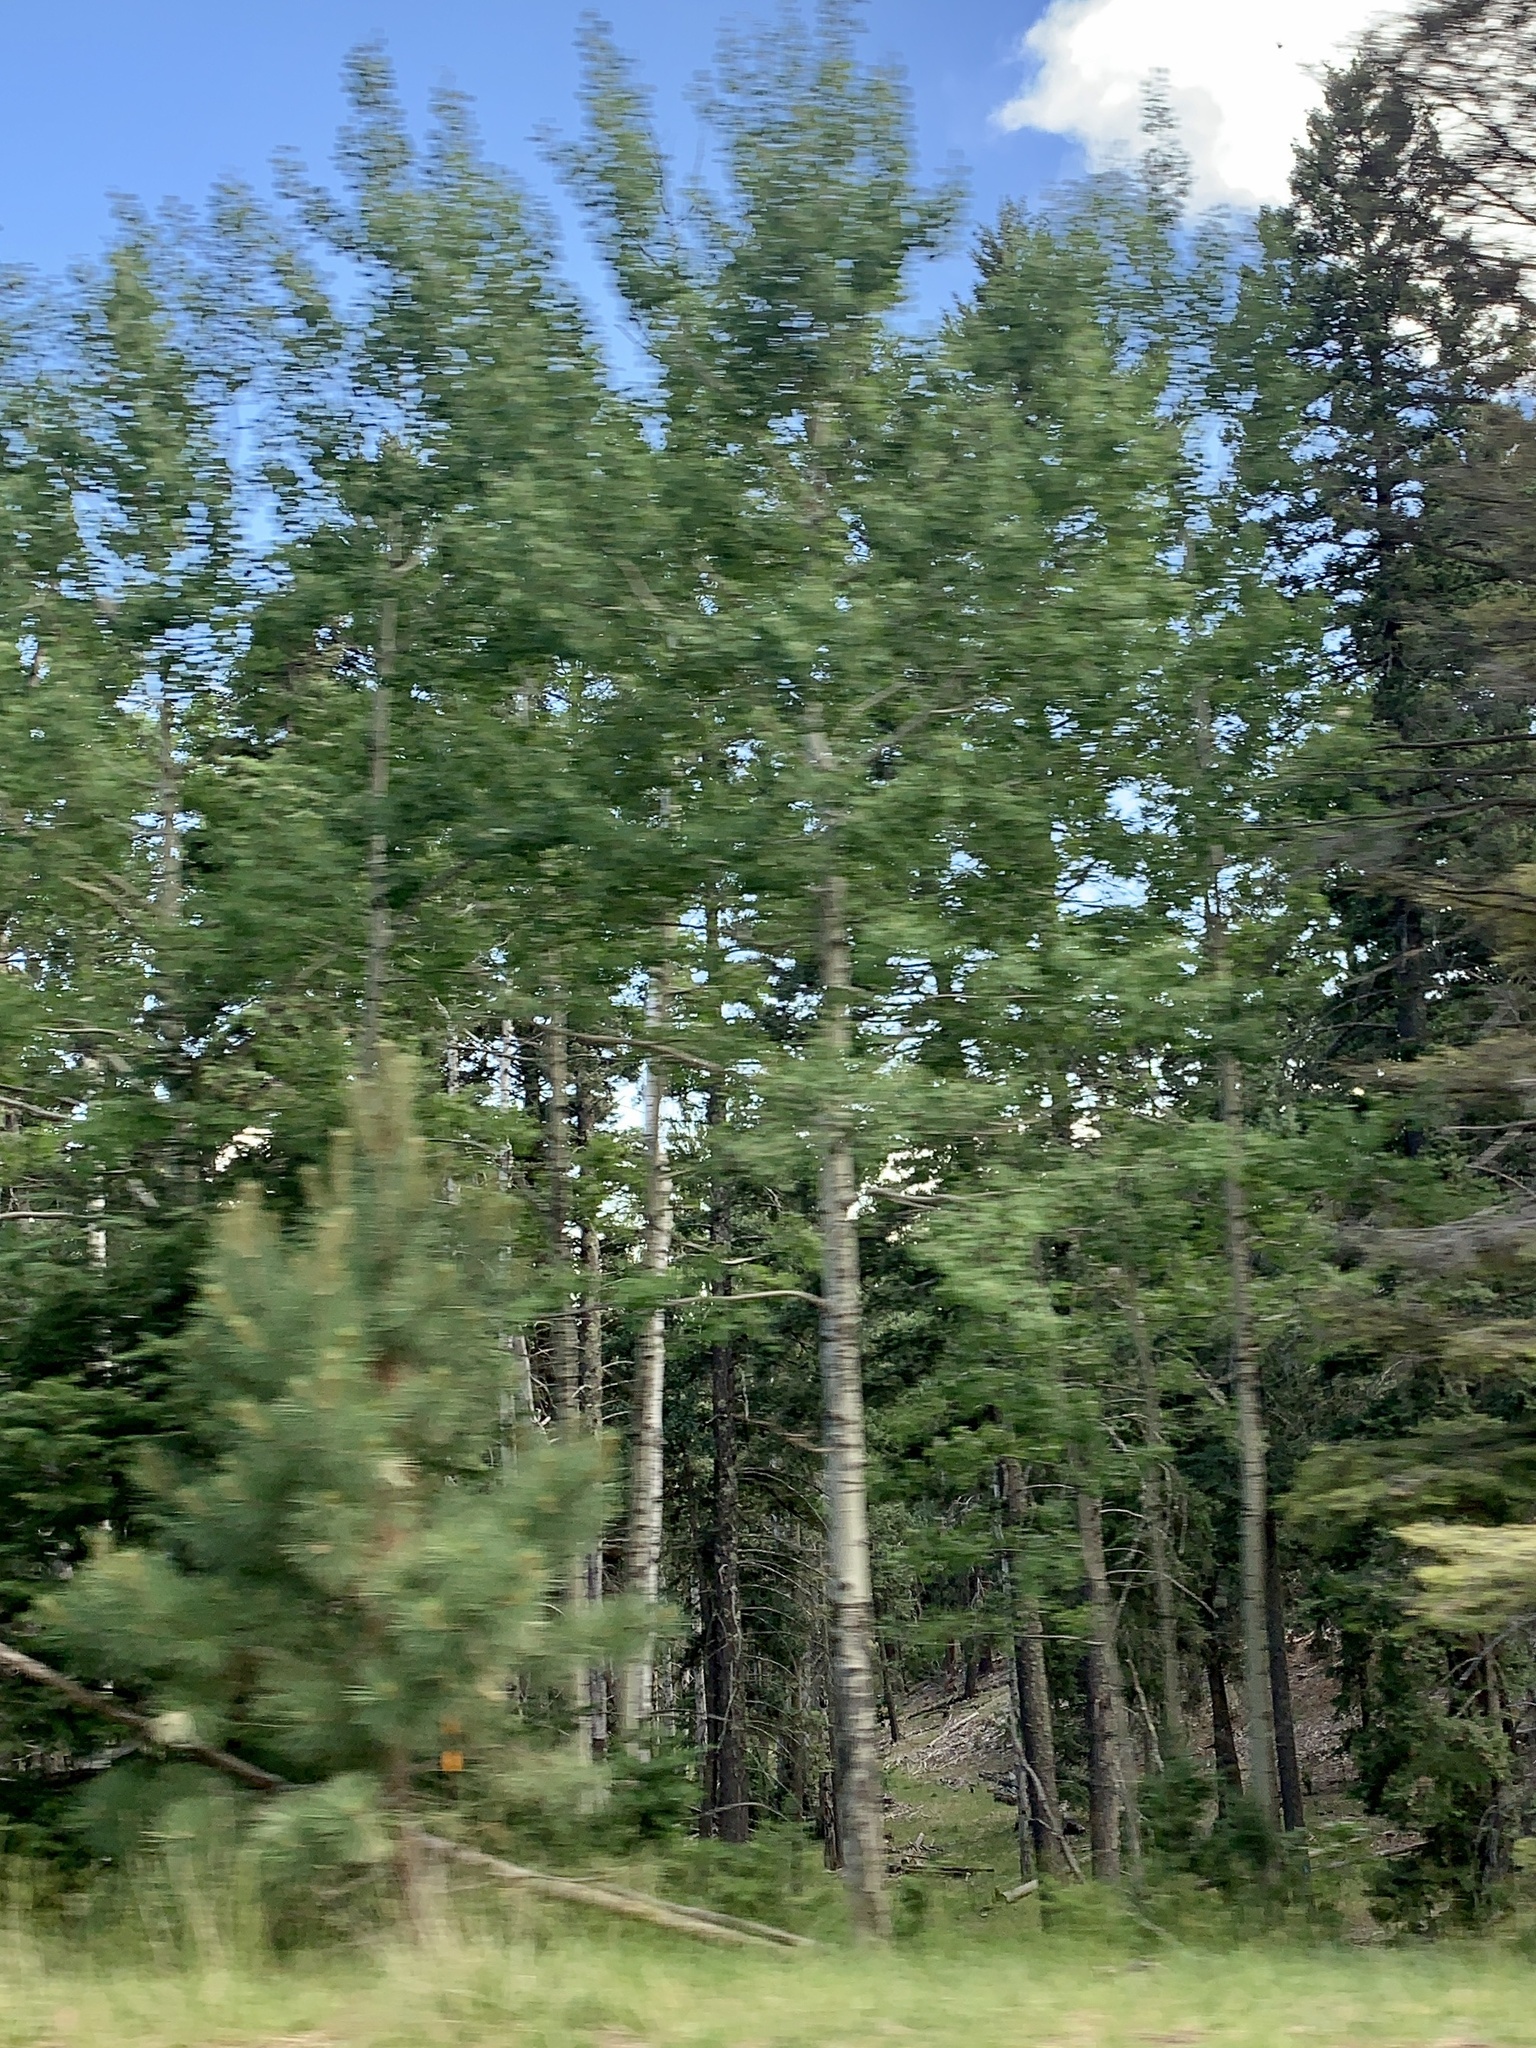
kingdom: Plantae
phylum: Tracheophyta
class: Magnoliopsida
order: Malpighiales
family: Salicaceae
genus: Populus
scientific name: Populus tremuloides
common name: Quaking aspen
